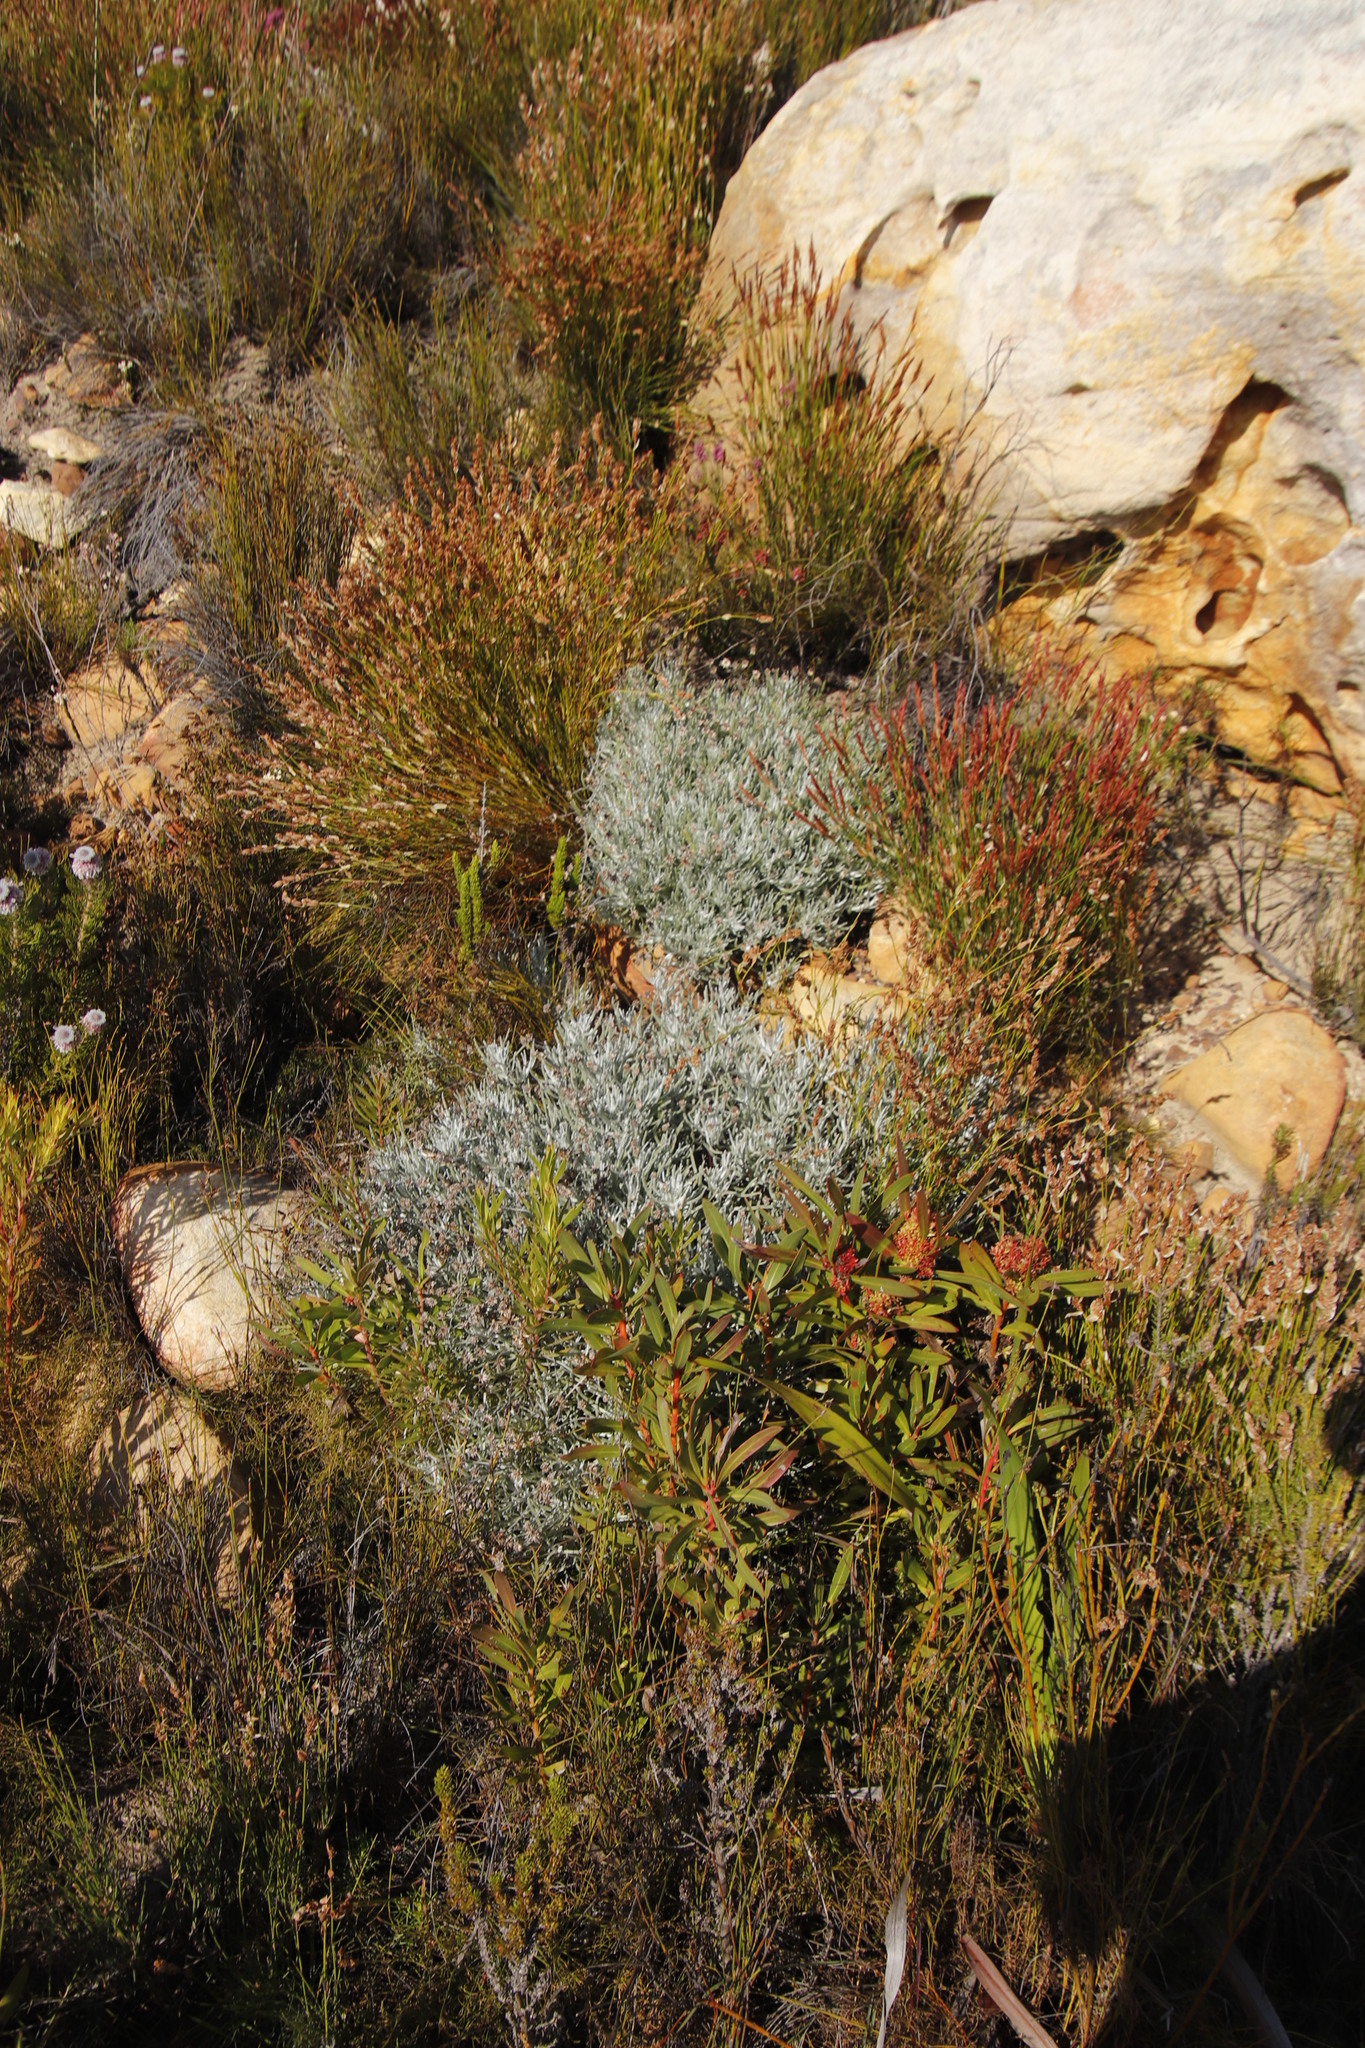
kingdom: Plantae
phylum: Tracheophyta
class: Magnoliopsida
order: Asterales
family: Asteraceae
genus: Syncarpha
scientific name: Syncarpha gnaphaloides
